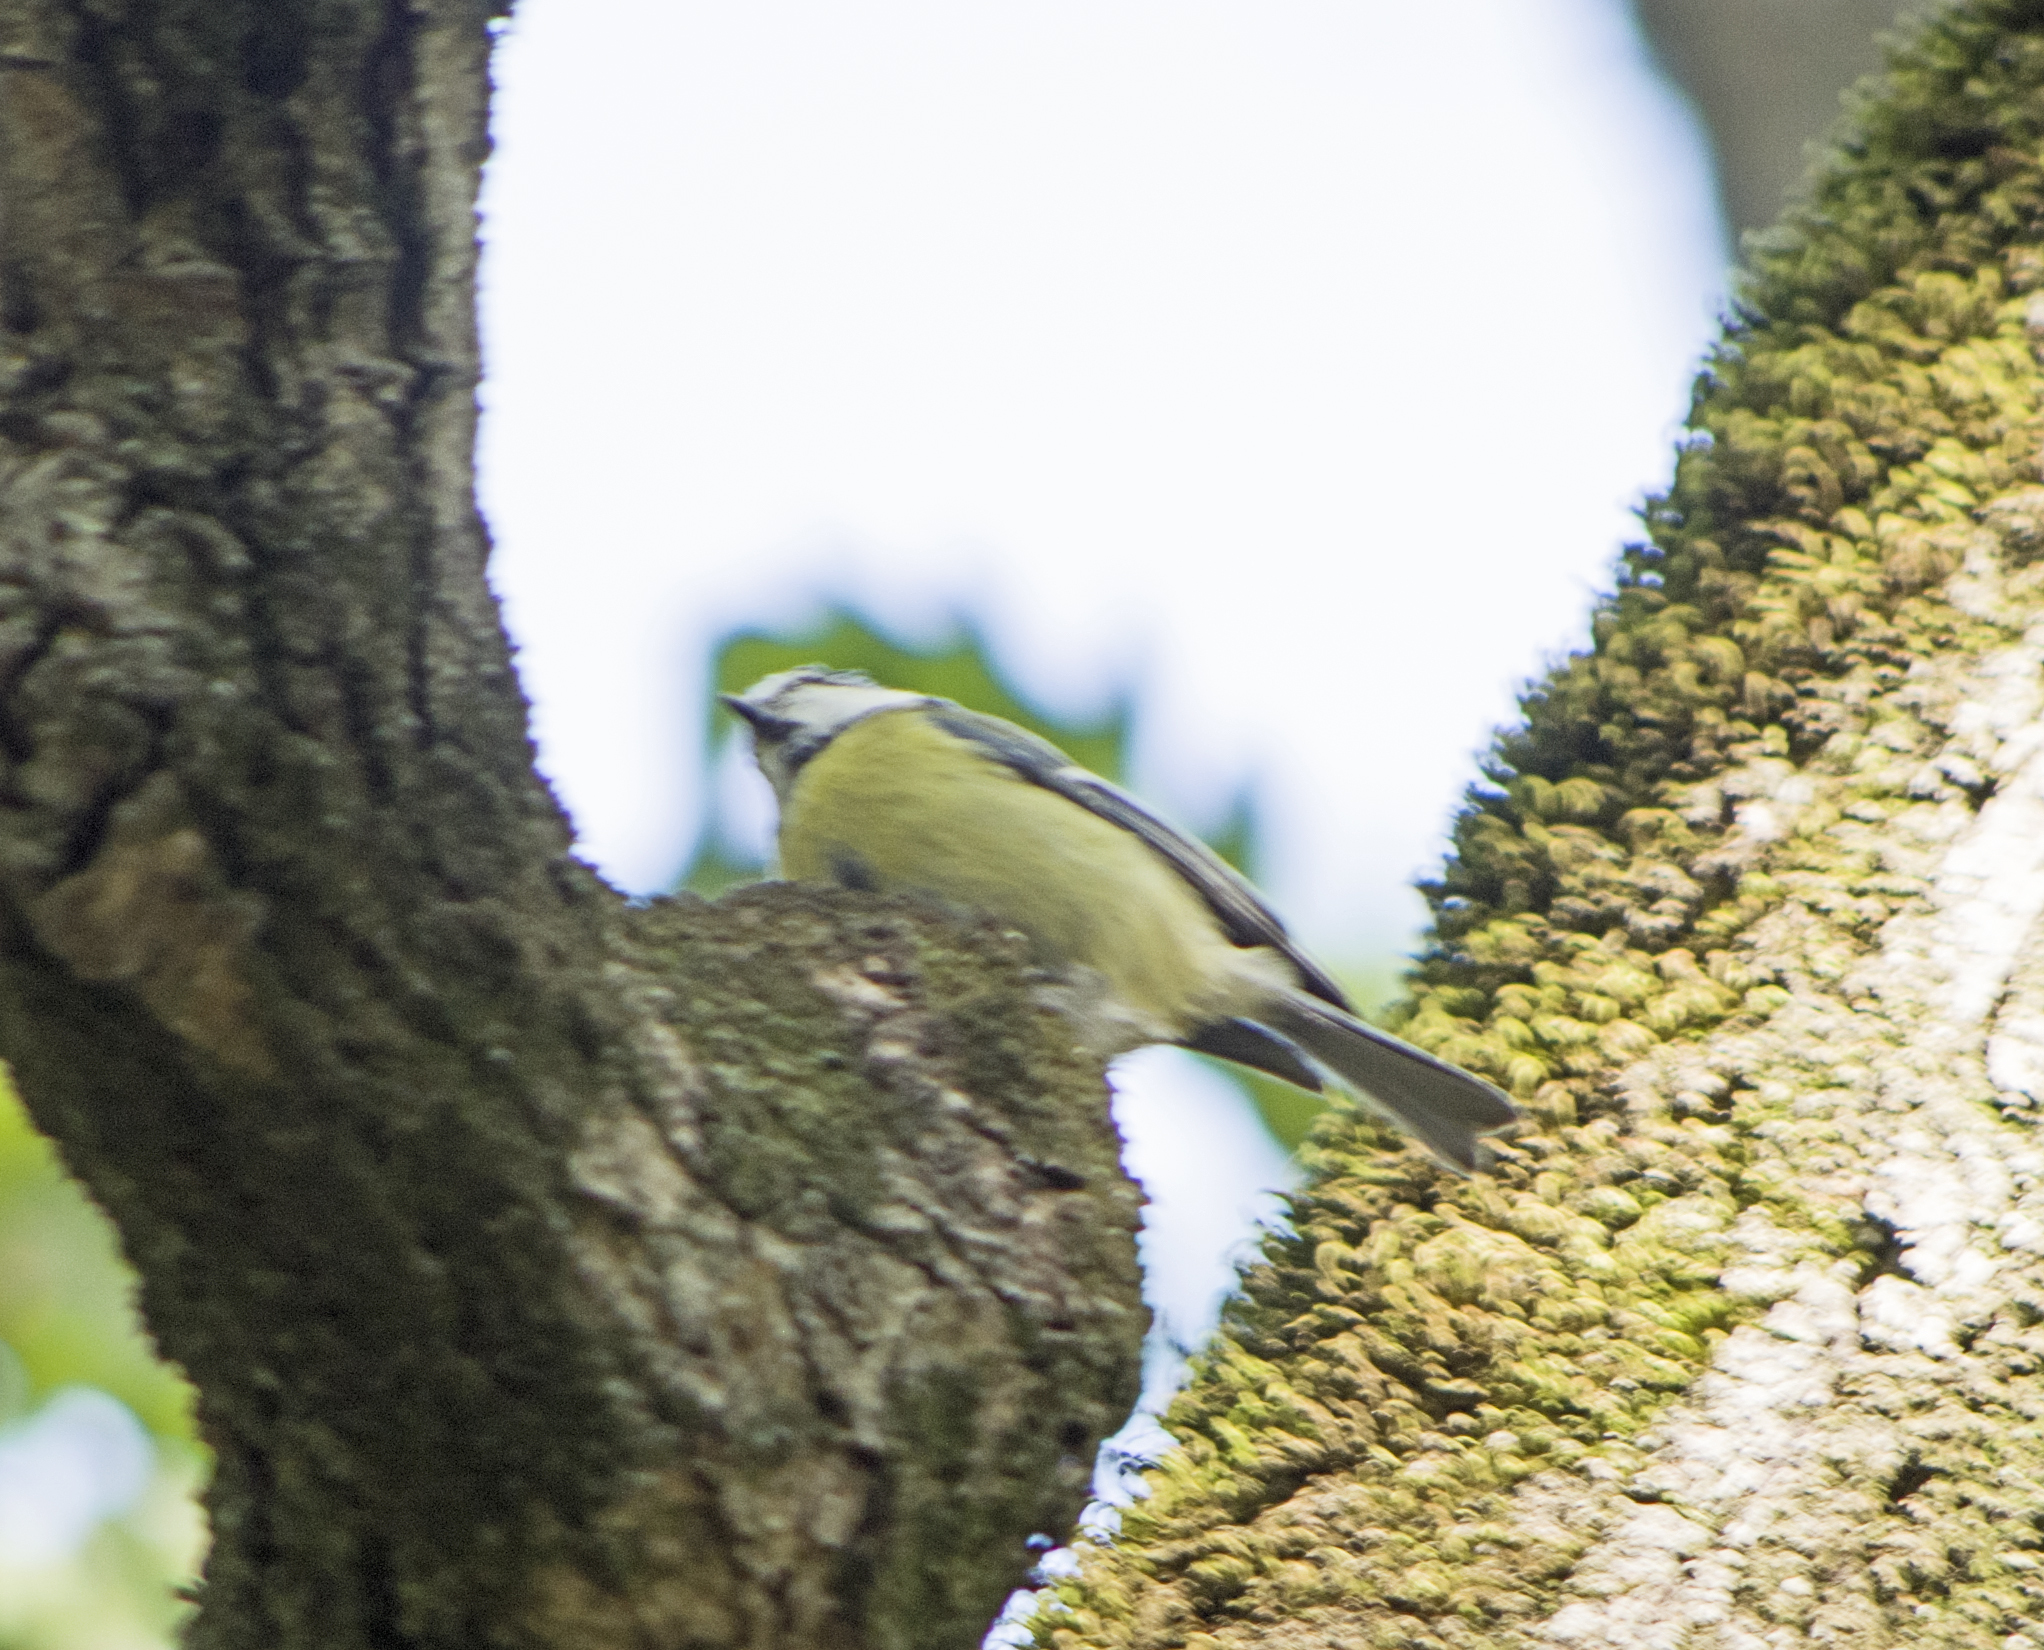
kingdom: Animalia
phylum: Chordata
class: Aves
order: Passeriformes
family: Paridae
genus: Cyanistes
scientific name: Cyanistes caeruleus
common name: Eurasian blue tit
